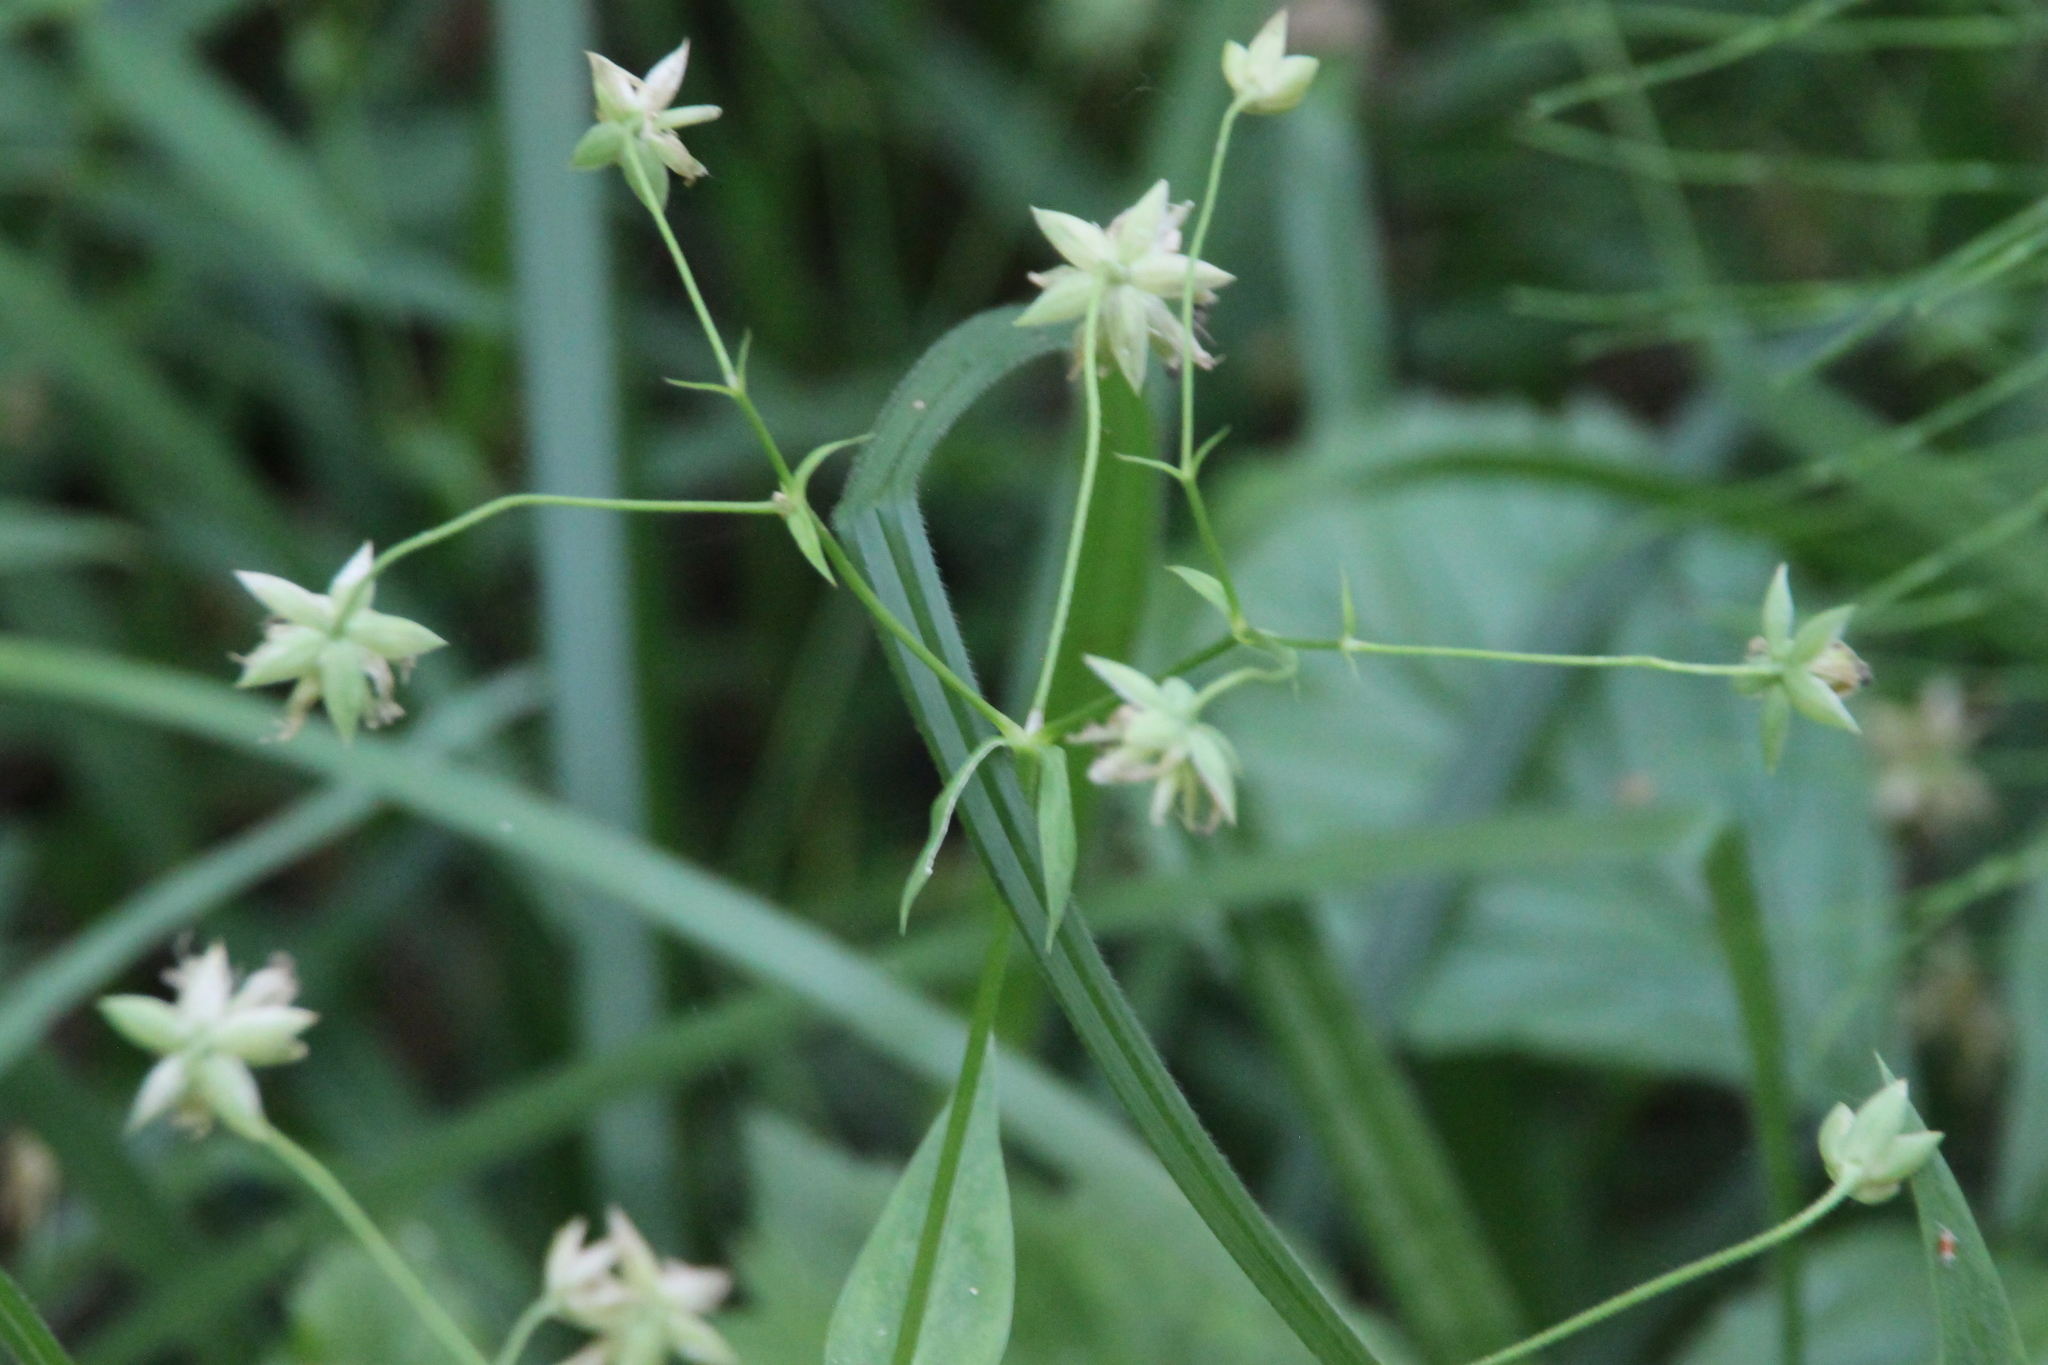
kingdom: Plantae
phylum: Tracheophyta
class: Magnoliopsida
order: Caryophyllales
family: Caryophyllaceae
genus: Rabelera
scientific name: Rabelera holostea
